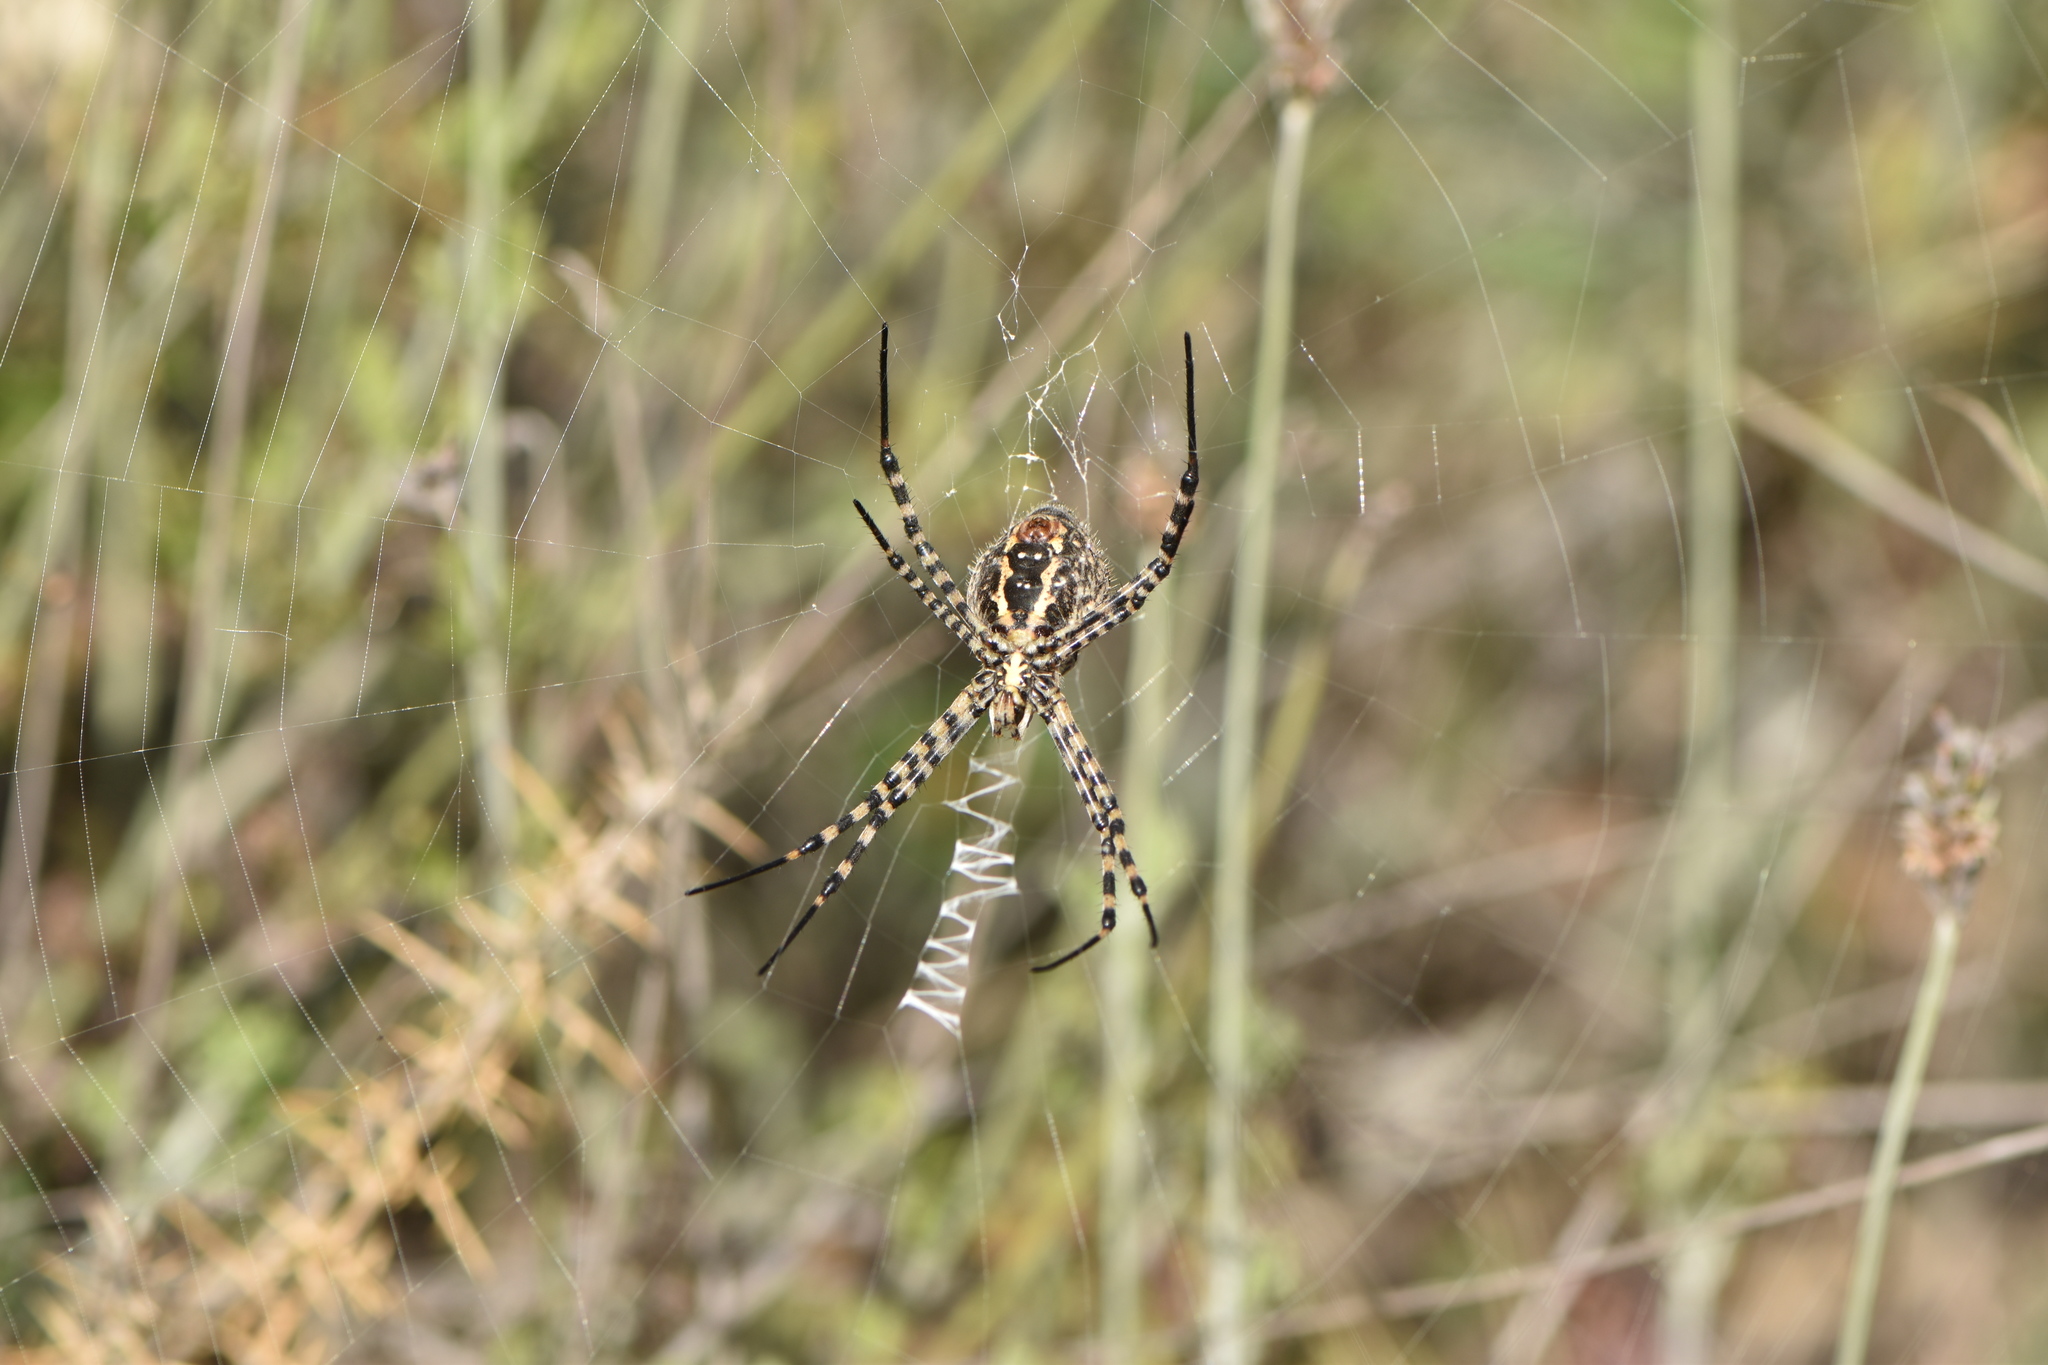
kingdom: Animalia
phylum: Arthropoda
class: Arachnida
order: Araneae
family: Araneidae
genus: Argiope
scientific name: Argiope trifasciata
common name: Banded garden spider
